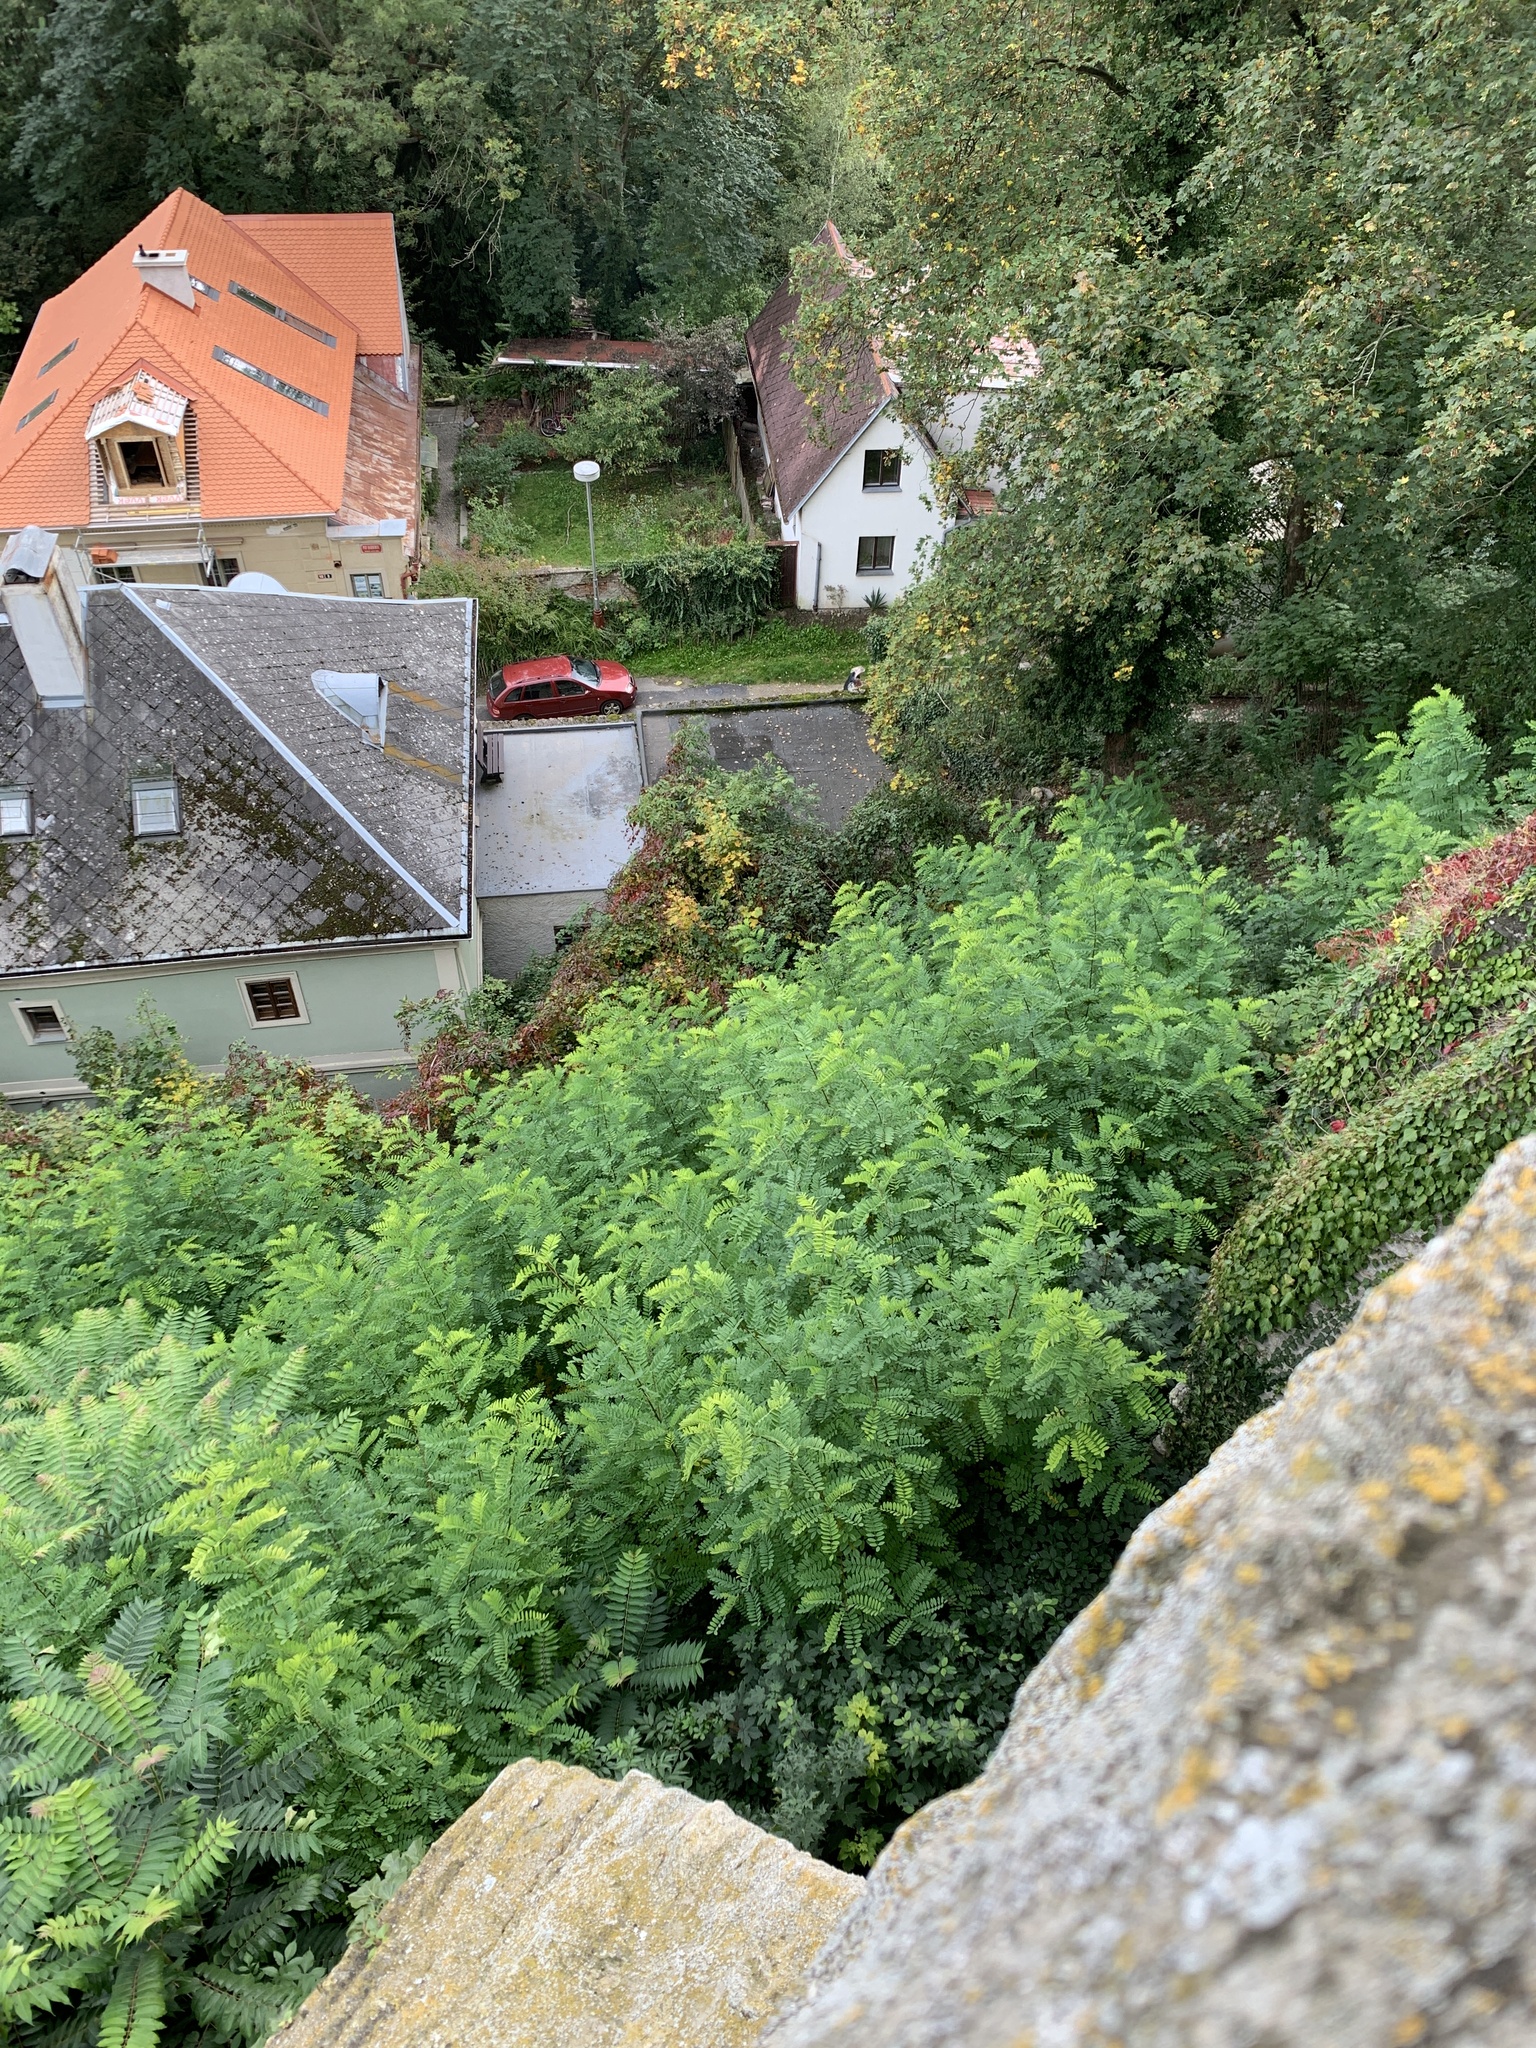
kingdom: Plantae
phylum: Tracheophyta
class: Magnoliopsida
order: Fabales
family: Fabaceae
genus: Robinia
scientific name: Robinia pseudoacacia
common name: Black locust
